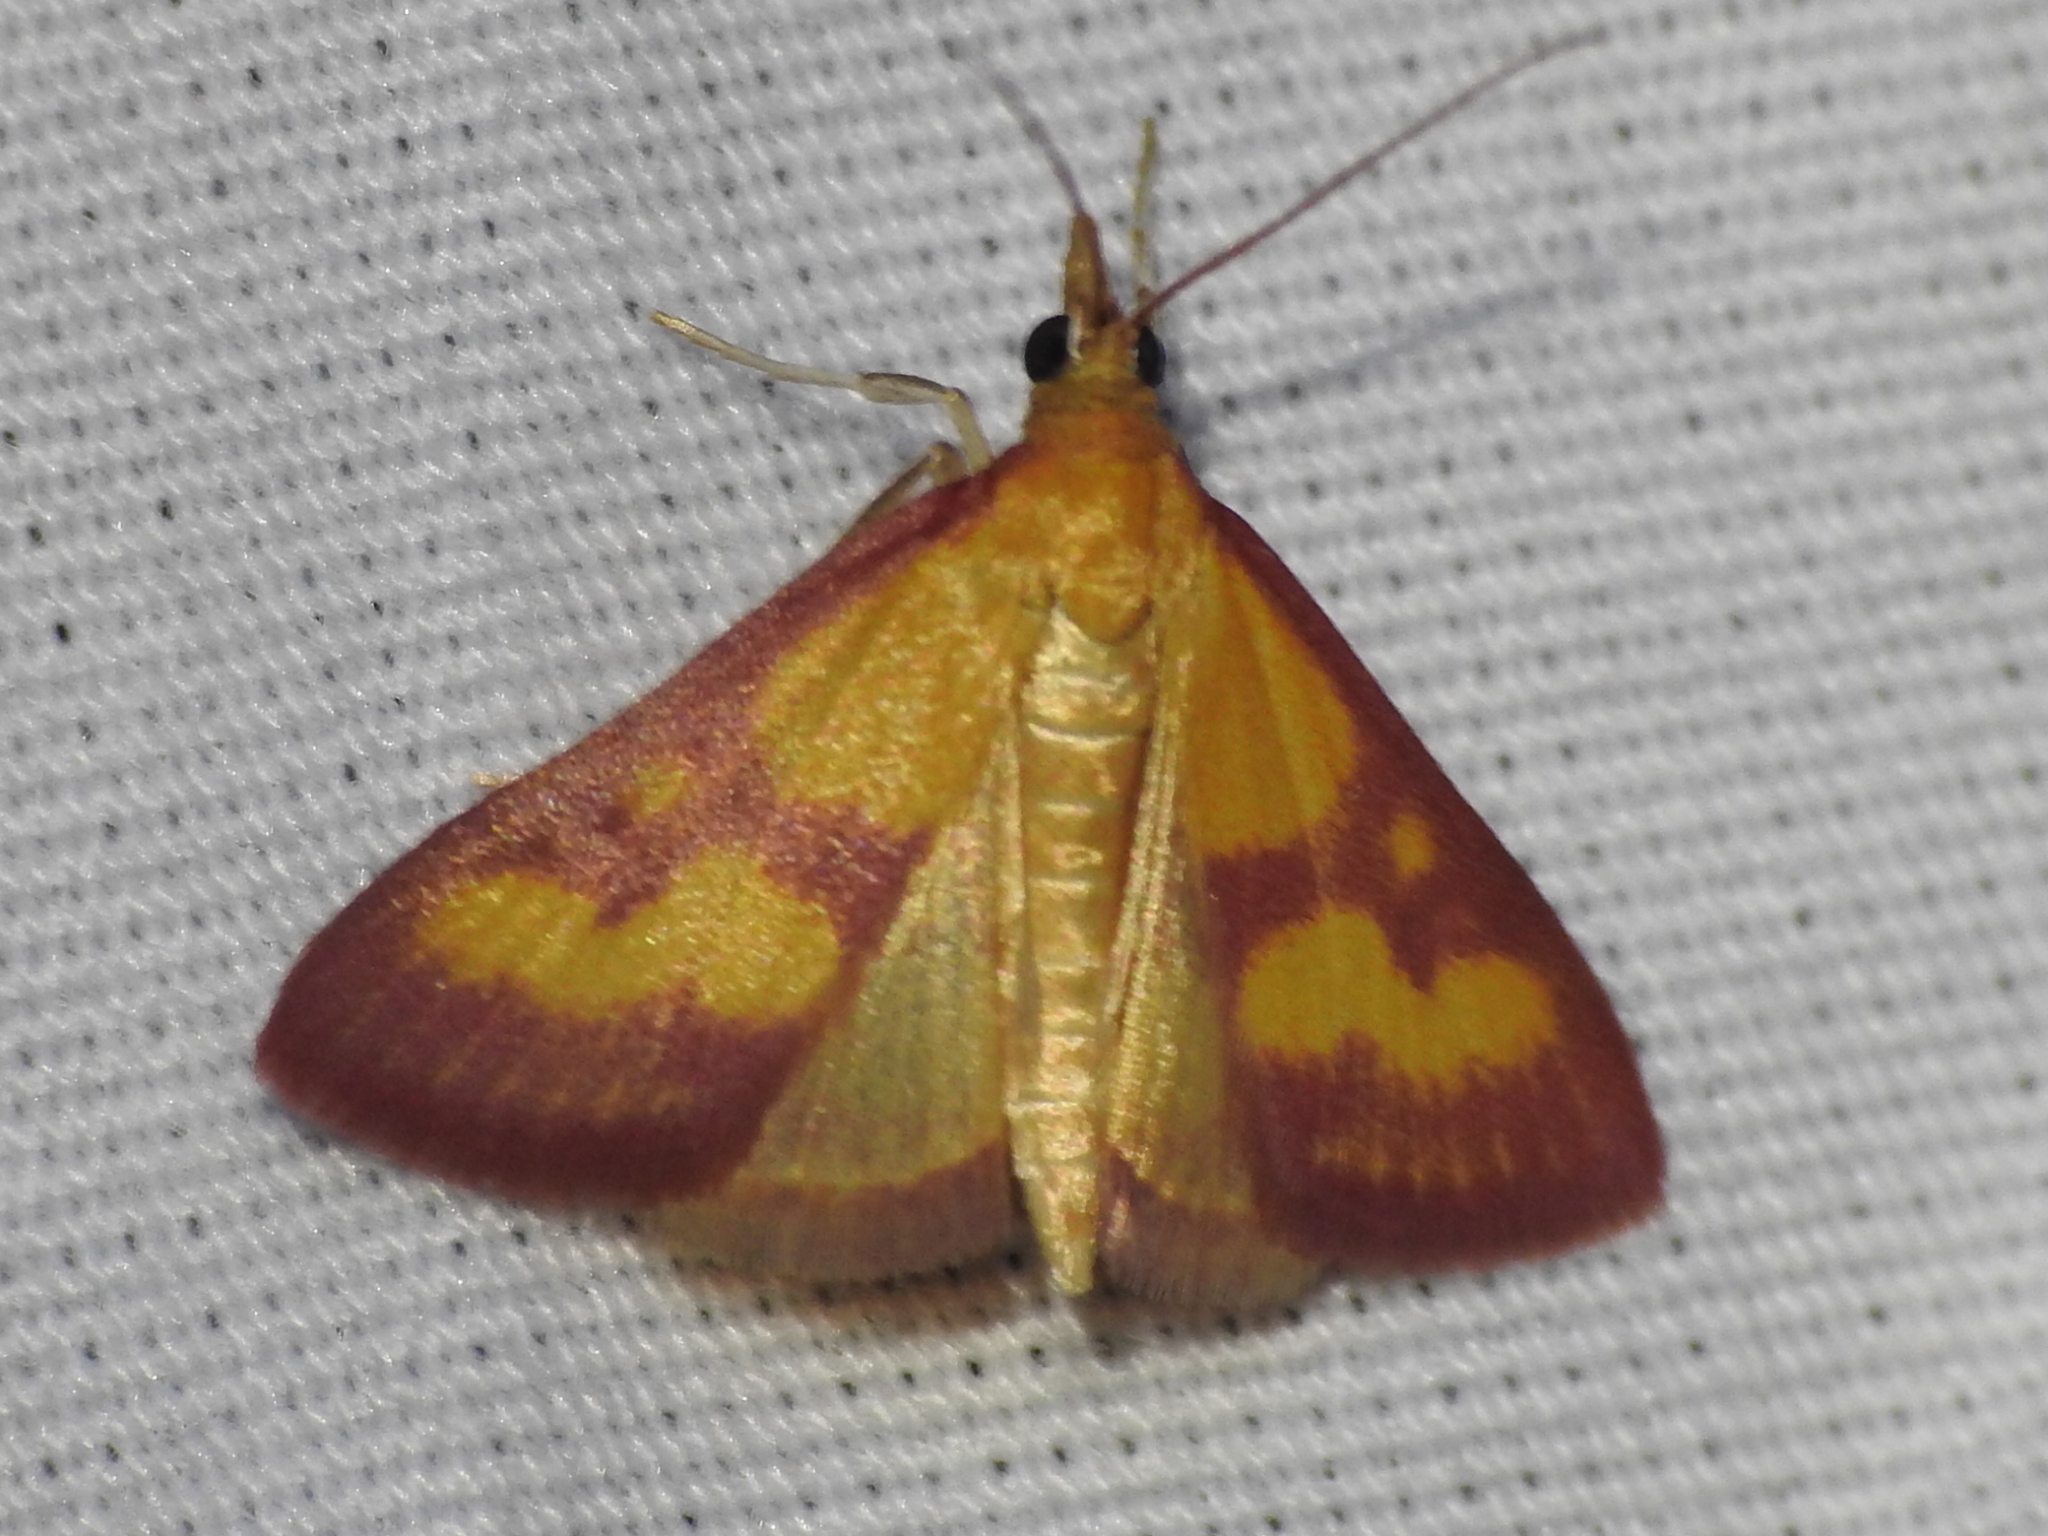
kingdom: Animalia
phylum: Arthropoda
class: Insecta
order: Lepidoptera
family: Crambidae
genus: Pyrausta
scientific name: Pyrausta laticlavia
